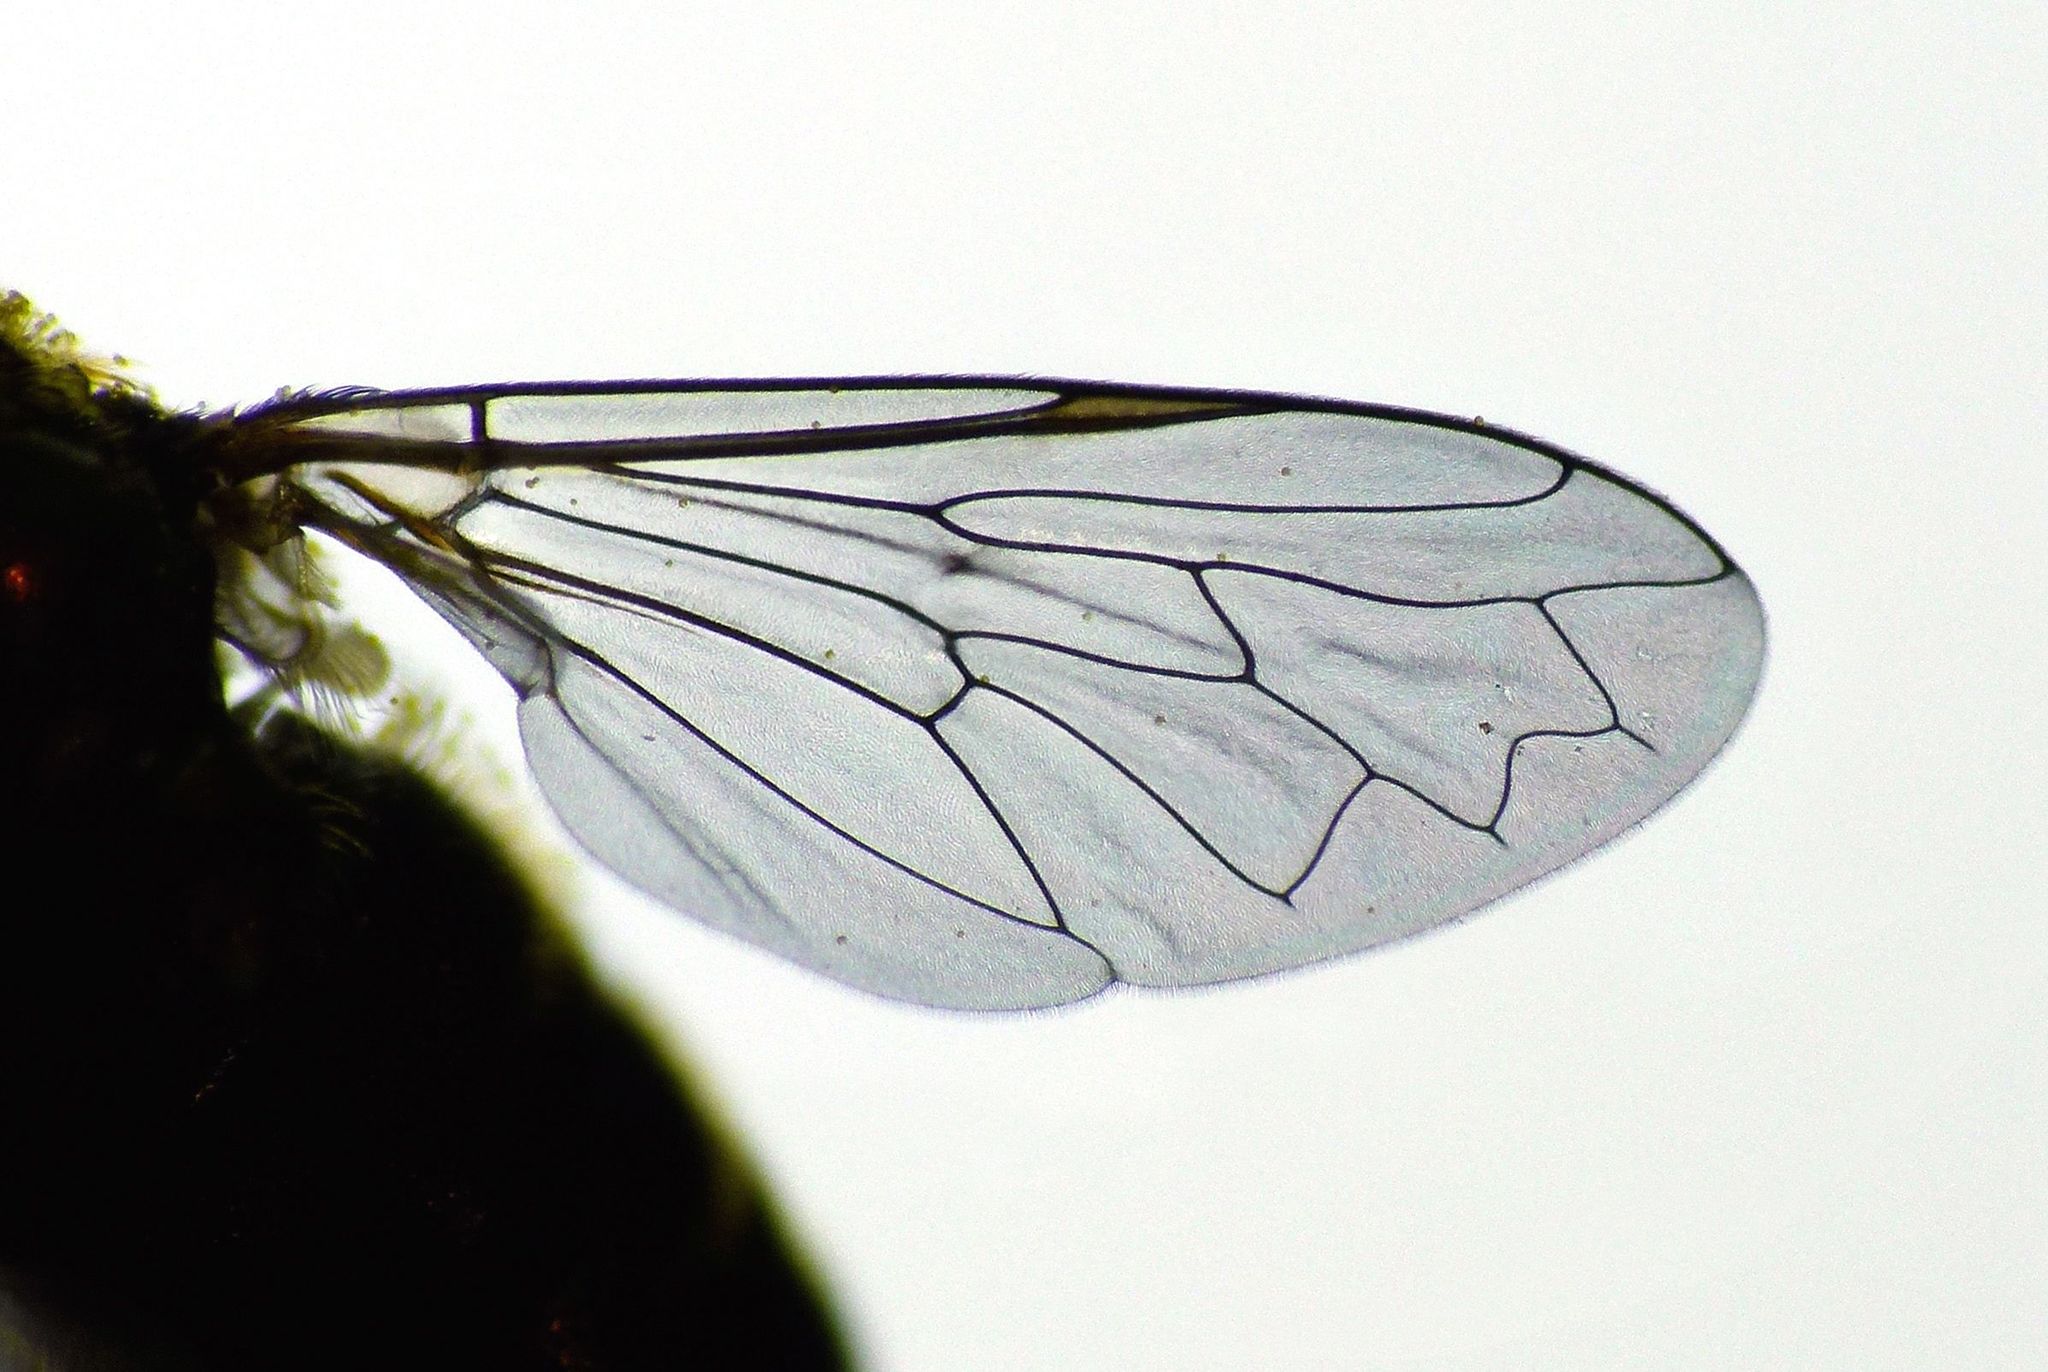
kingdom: Animalia
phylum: Arthropoda
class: Insecta
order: Diptera
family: Syrphidae
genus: Eumerus
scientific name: Eumerus
